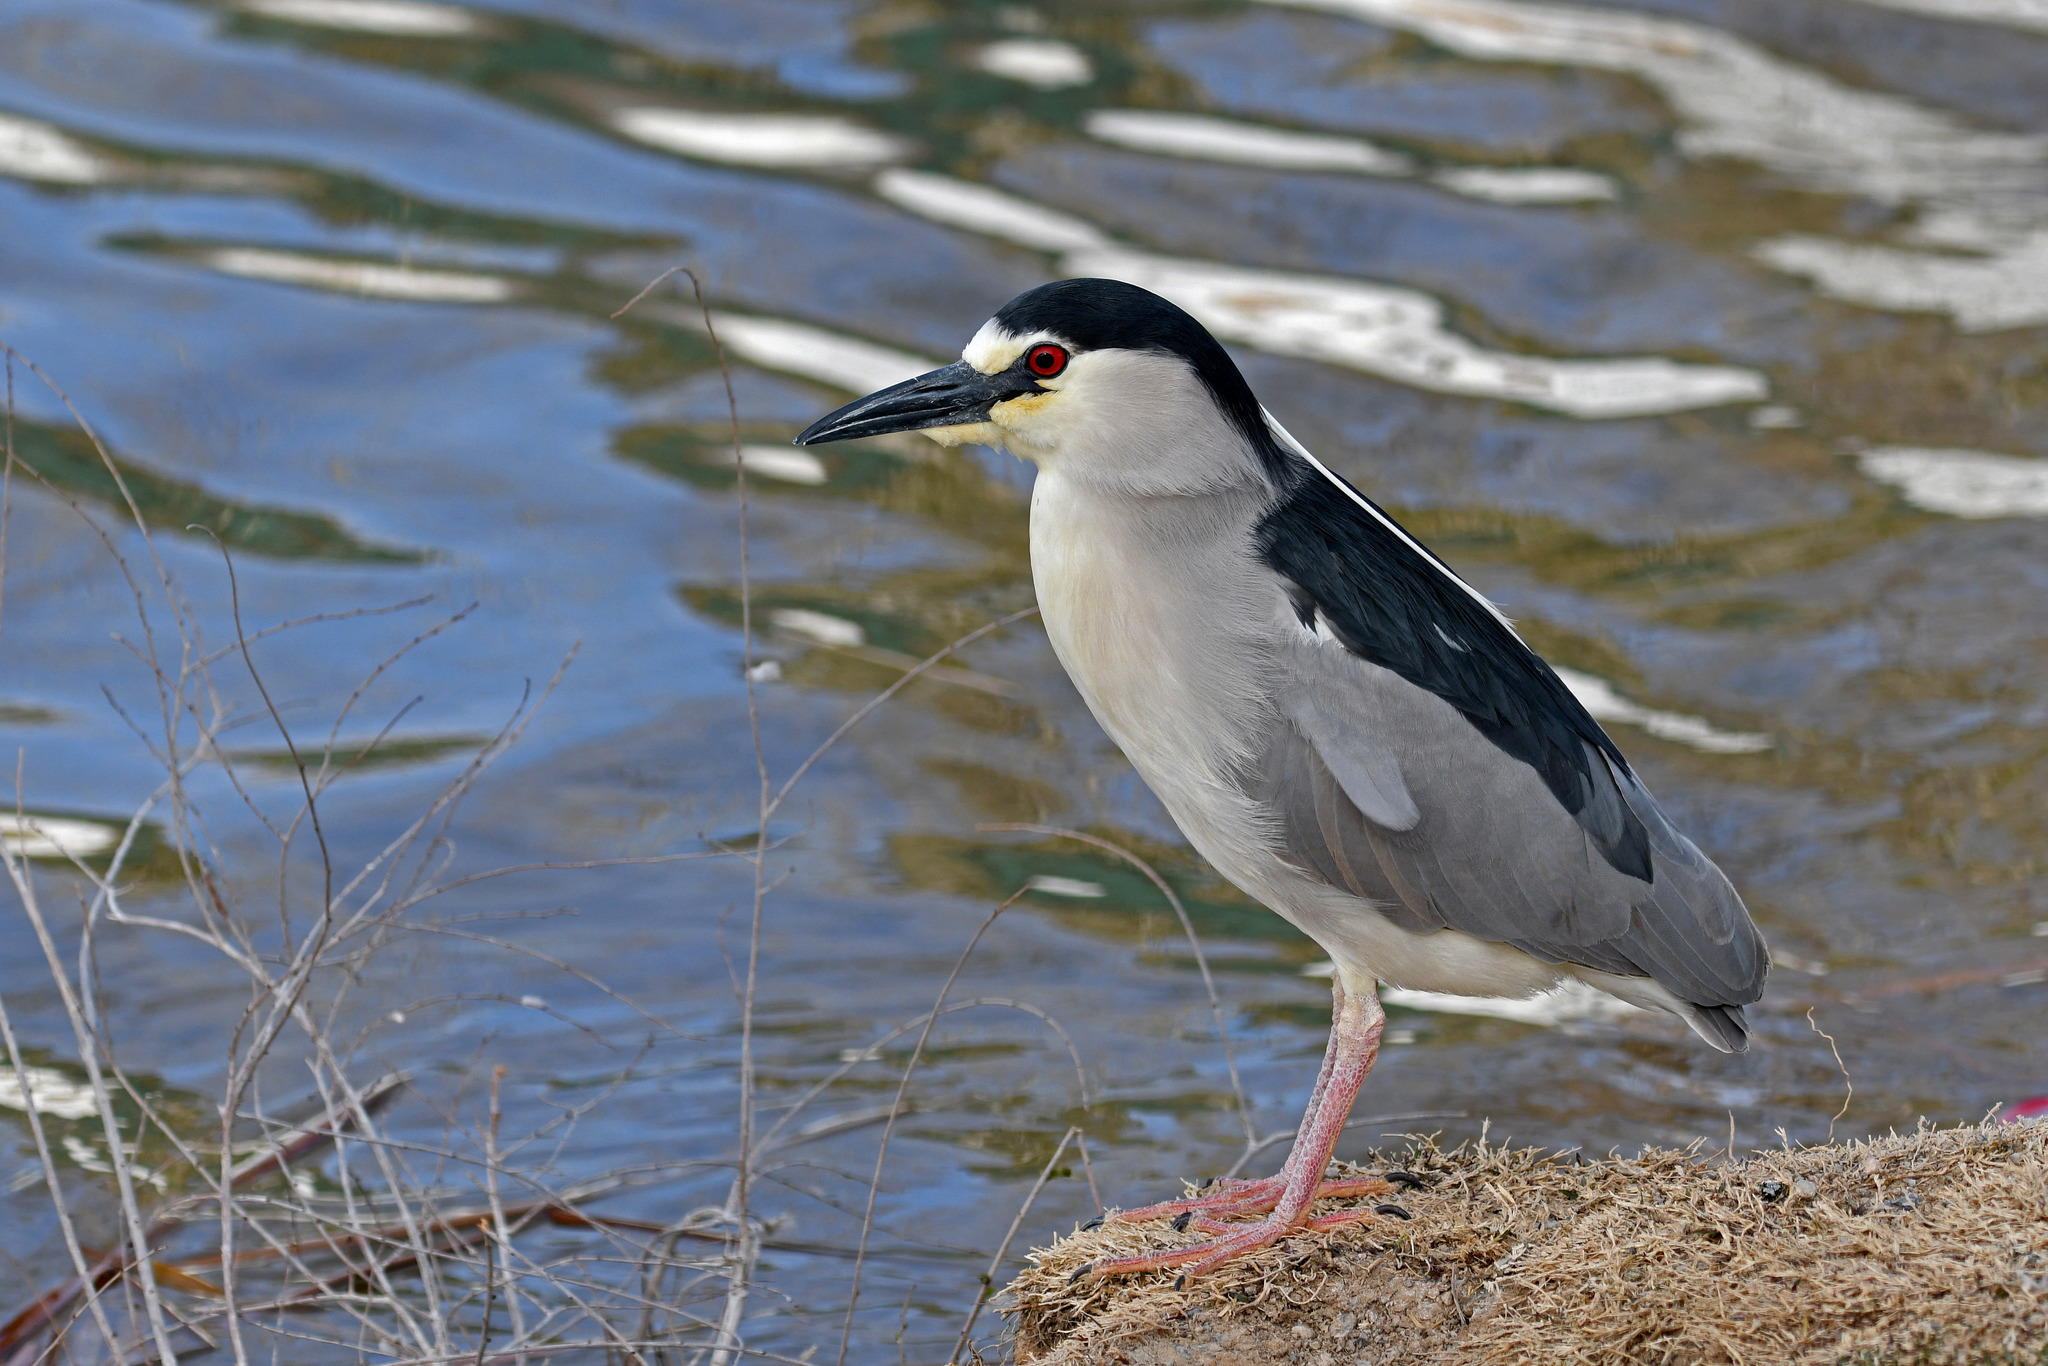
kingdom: Animalia
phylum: Chordata
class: Aves
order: Pelecaniformes
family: Ardeidae
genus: Nycticorax
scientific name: Nycticorax nycticorax
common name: Black-crowned night heron
